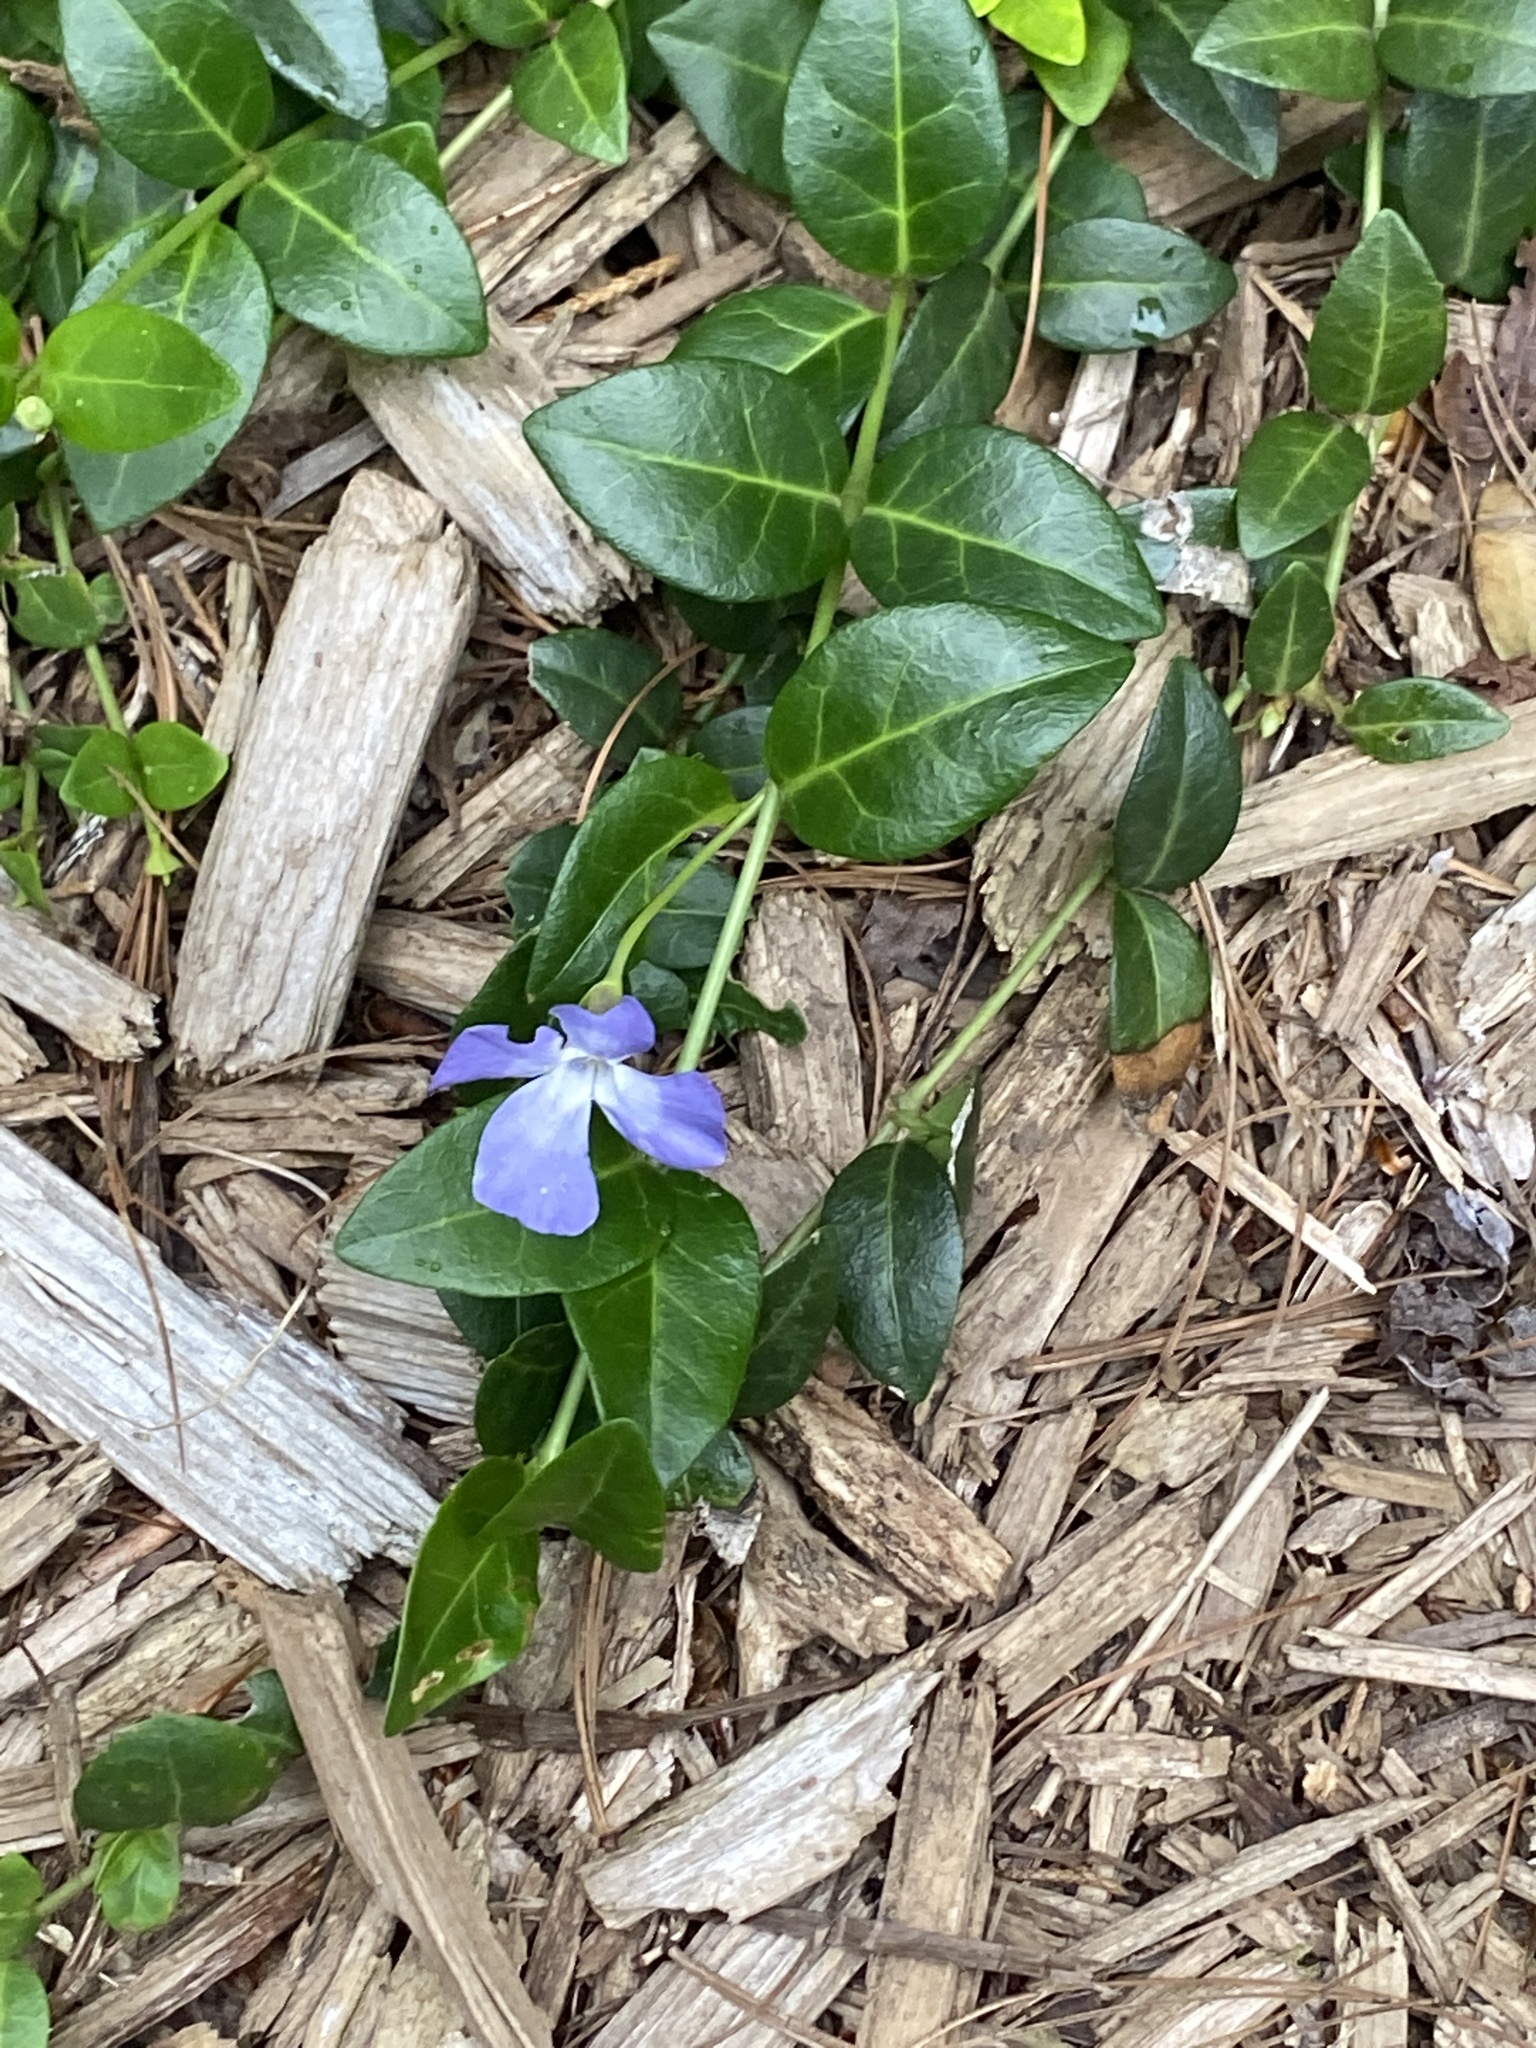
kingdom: Plantae
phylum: Tracheophyta
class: Magnoliopsida
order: Gentianales
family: Apocynaceae
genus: Vinca
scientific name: Vinca minor
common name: Lesser periwinkle
